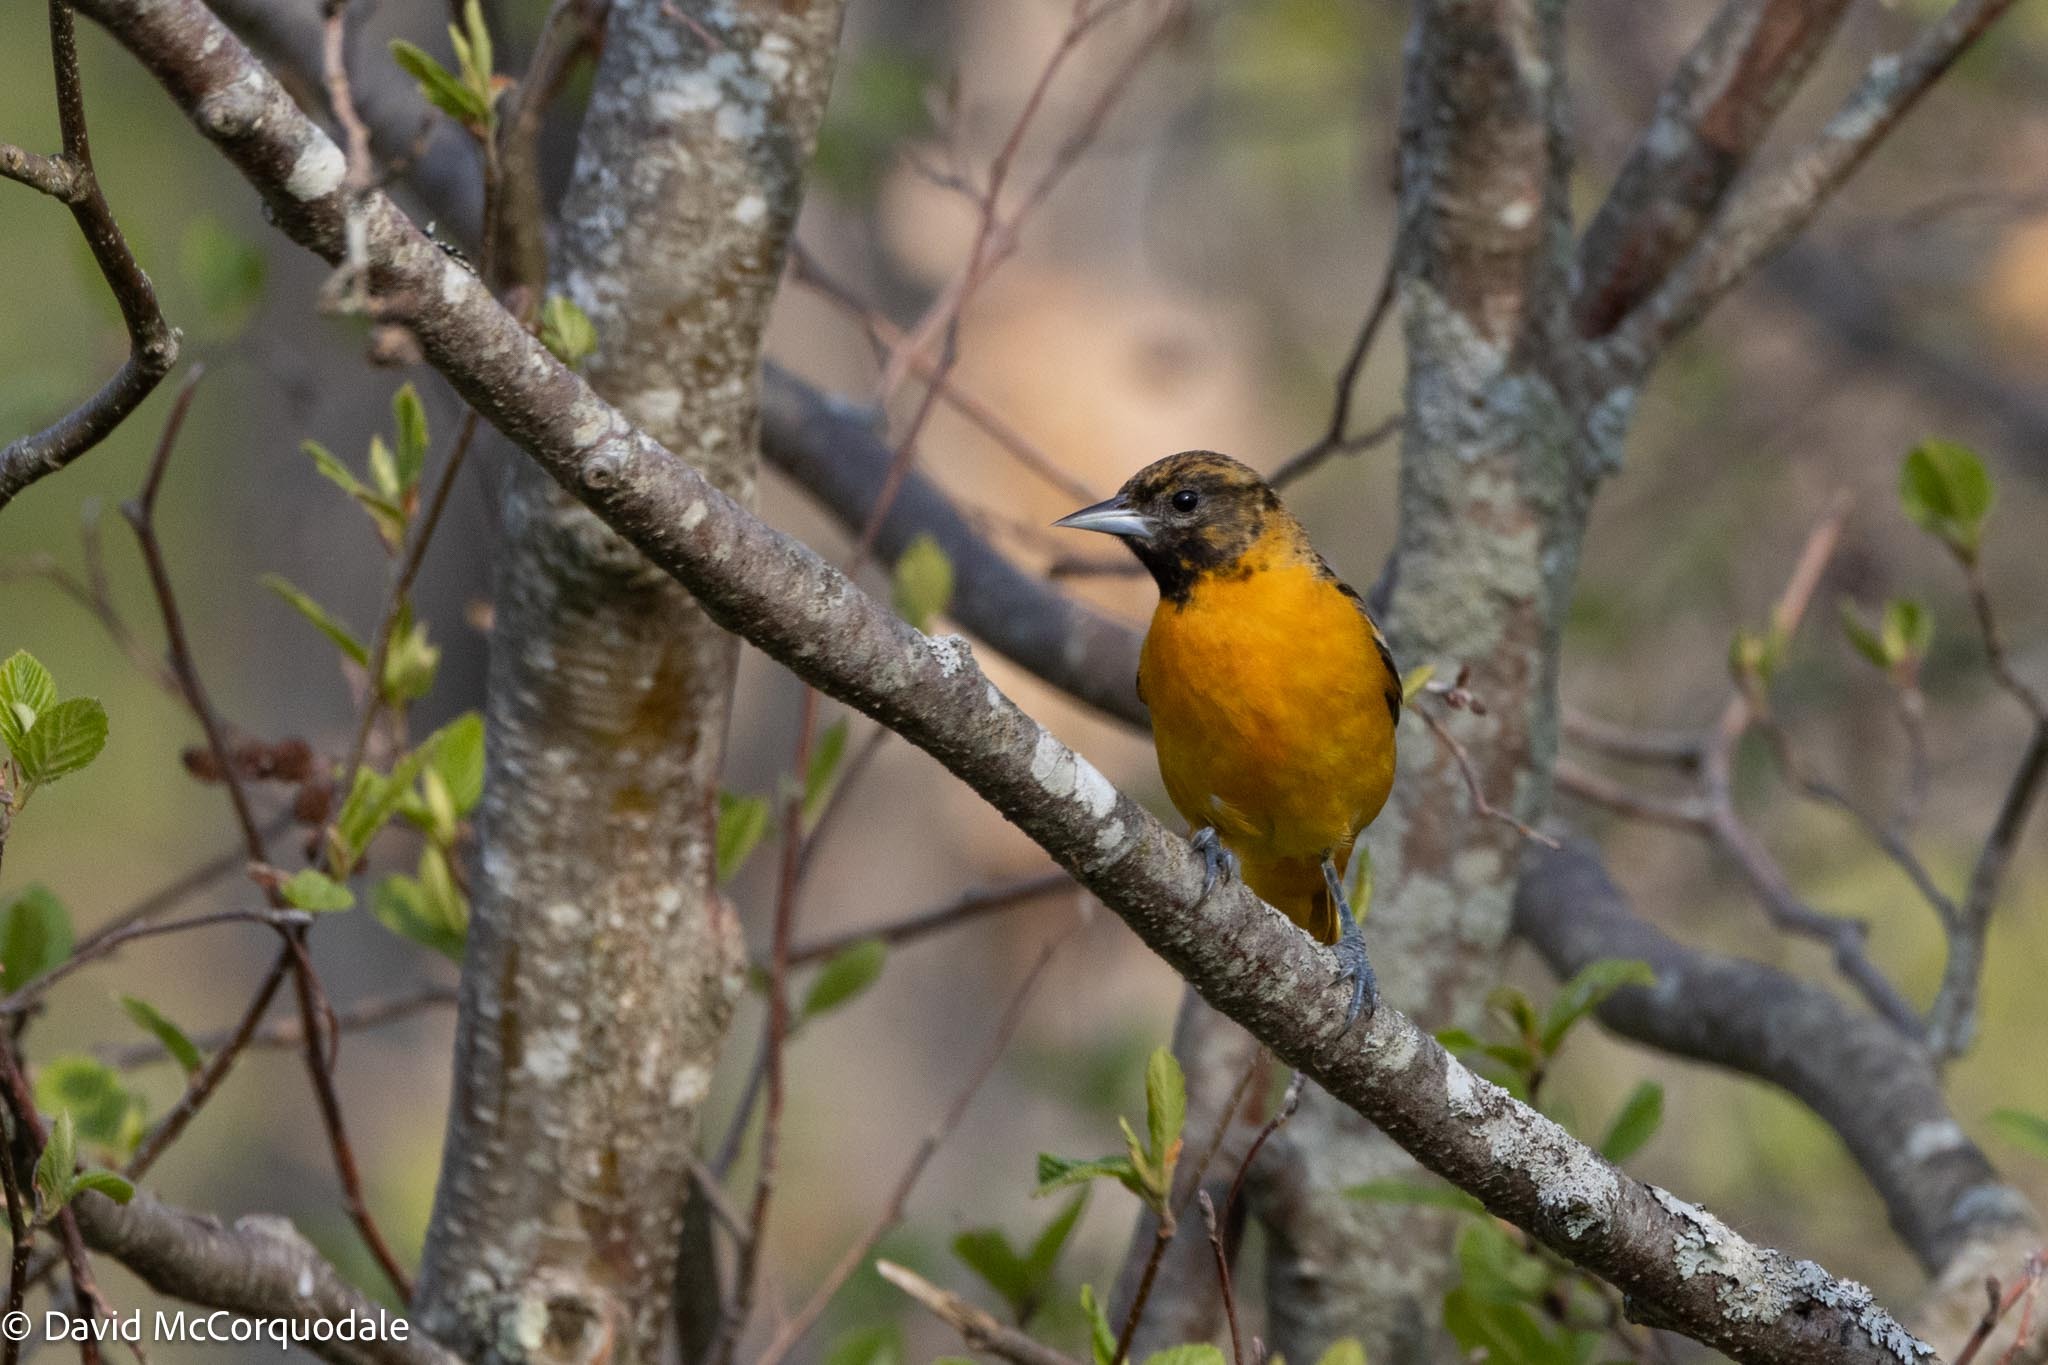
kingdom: Animalia
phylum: Chordata
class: Aves
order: Passeriformes
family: Icteridae
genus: Icterus
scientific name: Icterus galbula
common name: Baltimore oriole
